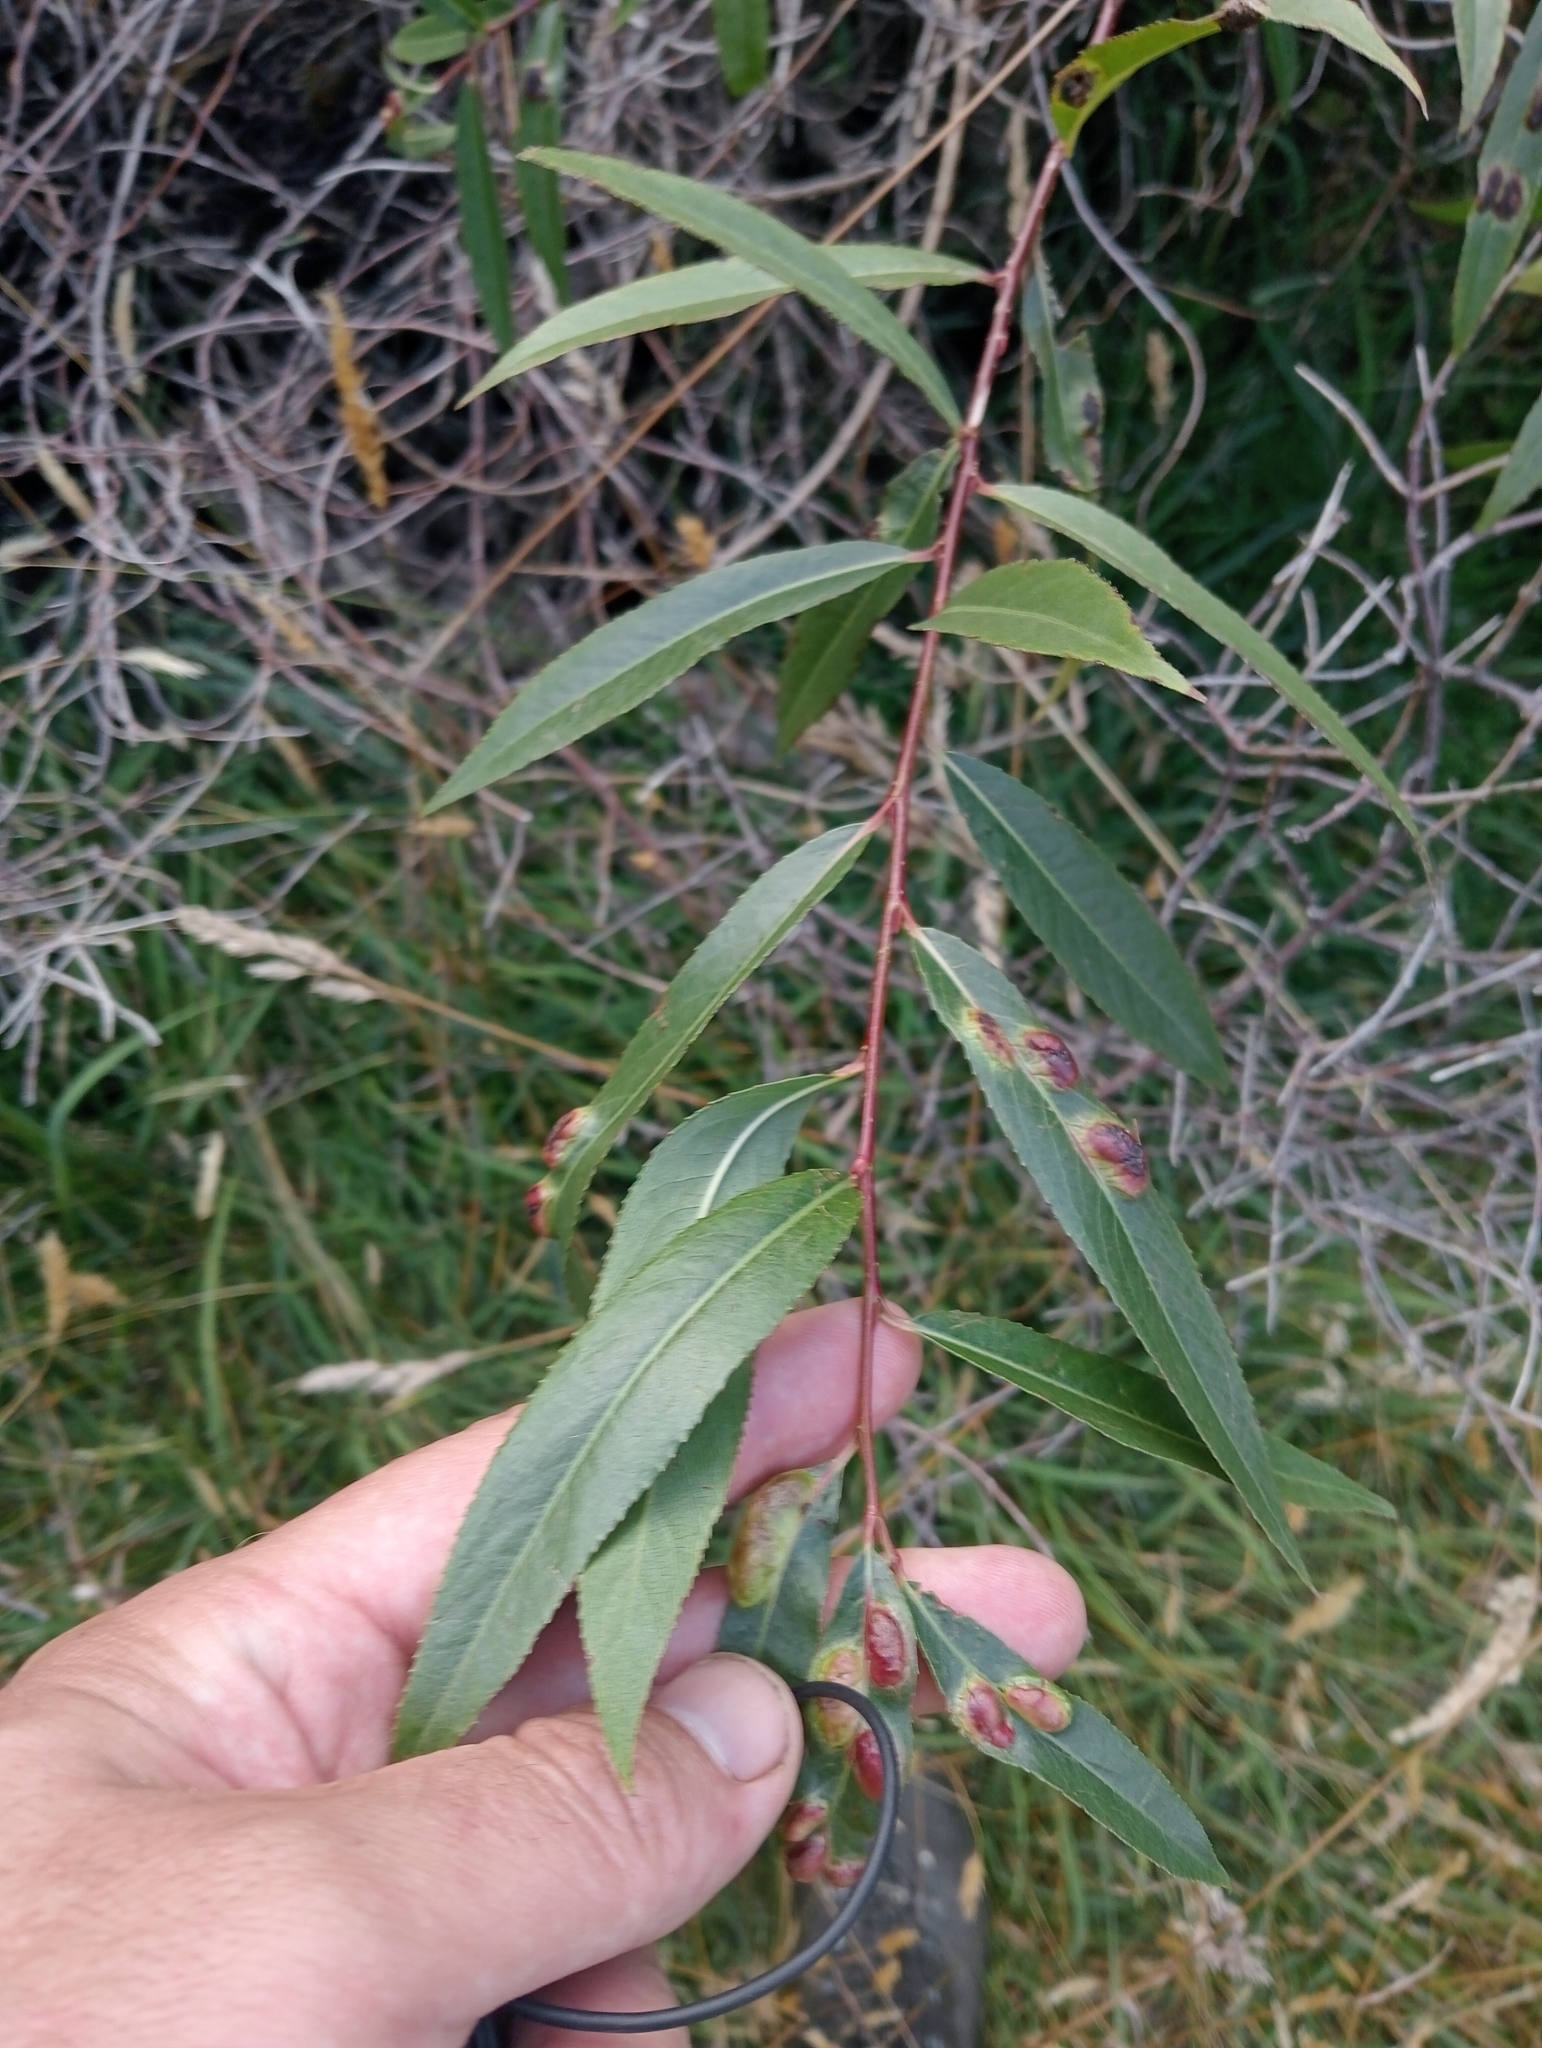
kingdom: Plantae
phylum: Tracheophyta
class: Magnoliopsida
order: Malpighiales
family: Salicaceae
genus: Salix
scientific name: Salix fragilis
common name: Crack willow
